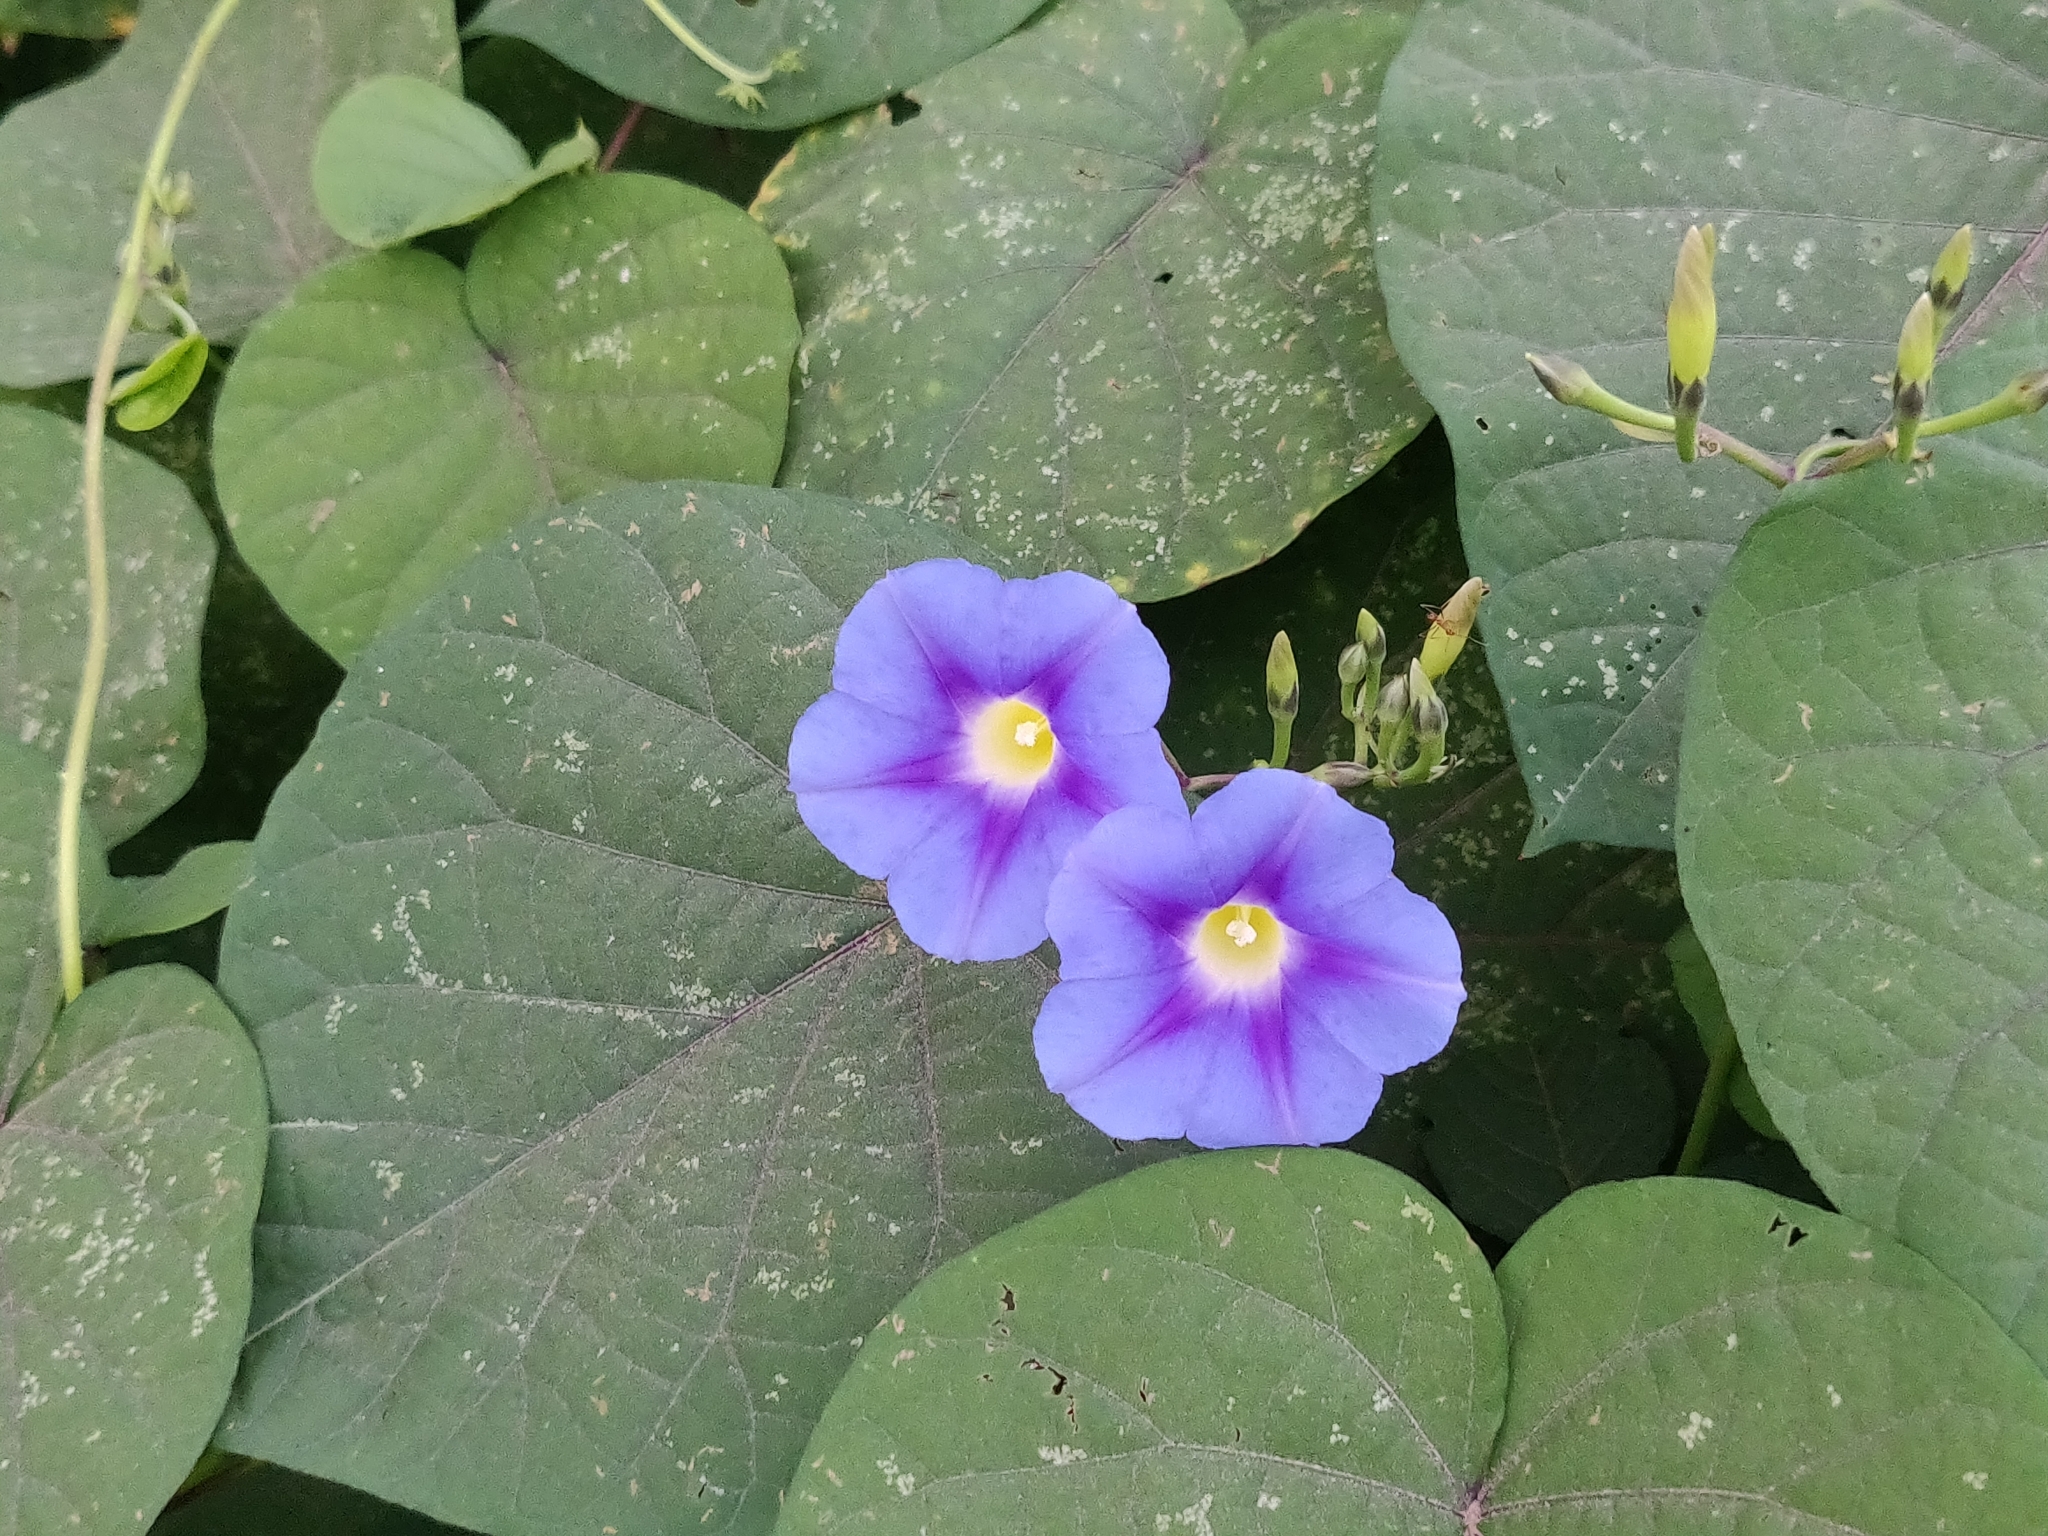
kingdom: Plantae
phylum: Tracheophyta
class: Magnoliopsida
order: Solanales
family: Convolvulaceae
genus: Ipomoea
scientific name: Ipomoea parasitica
